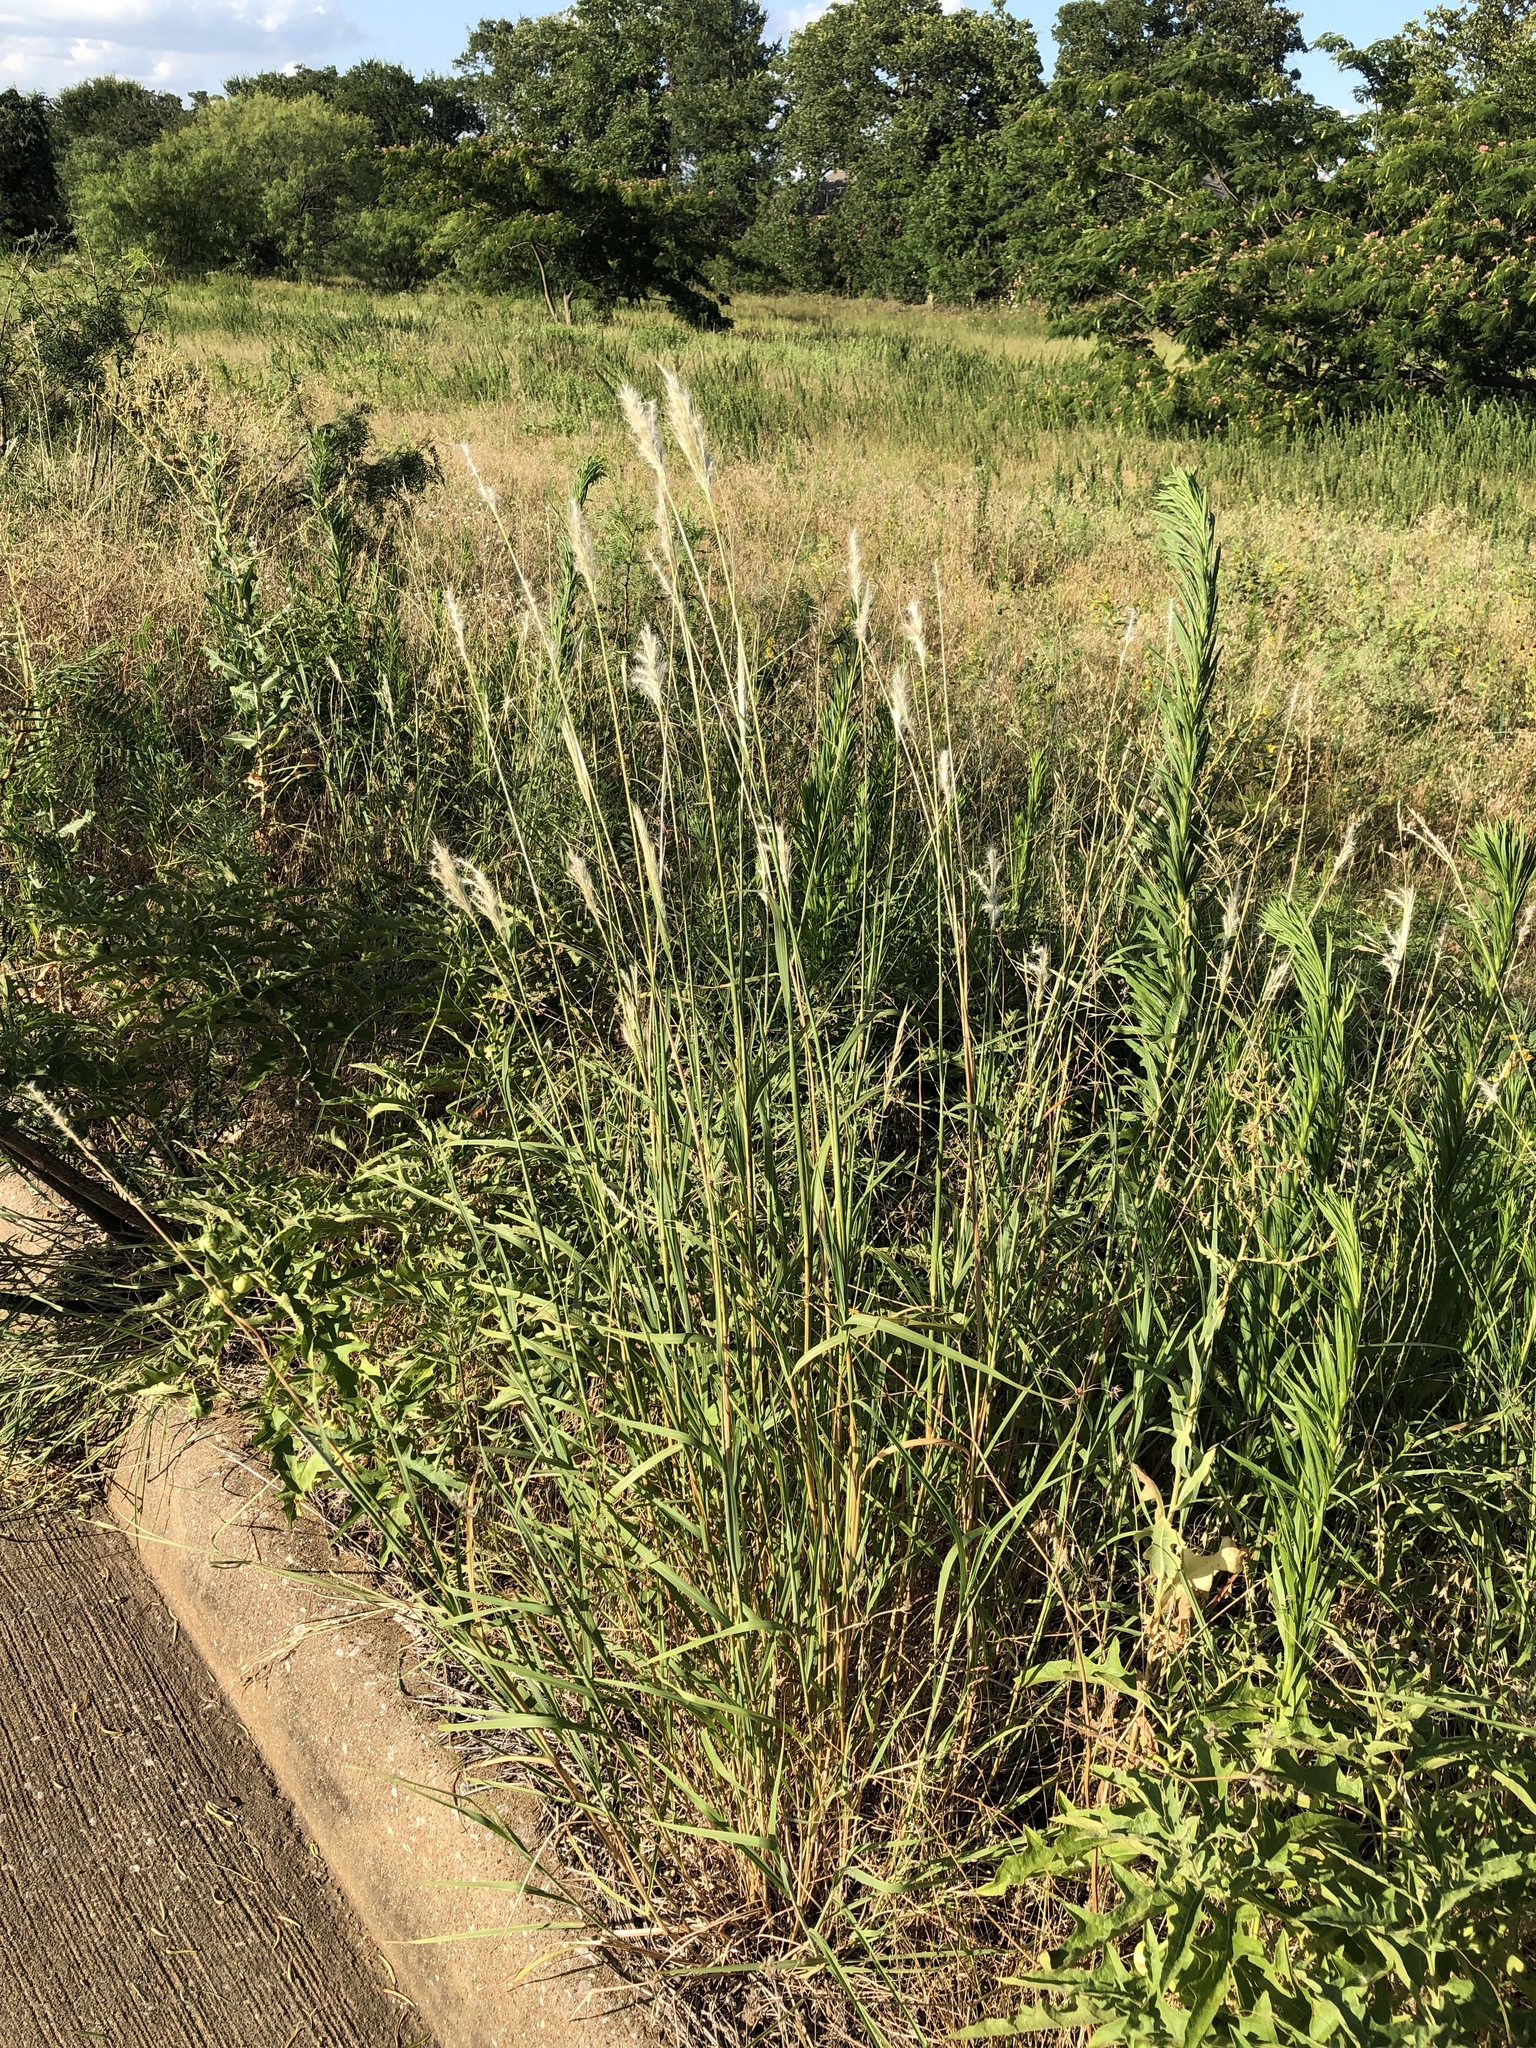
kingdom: Plantae
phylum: Tracheophyta
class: Liliopsida
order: Poales
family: Poaceae
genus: Bothriochloa
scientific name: Bothriochloa torreyana
